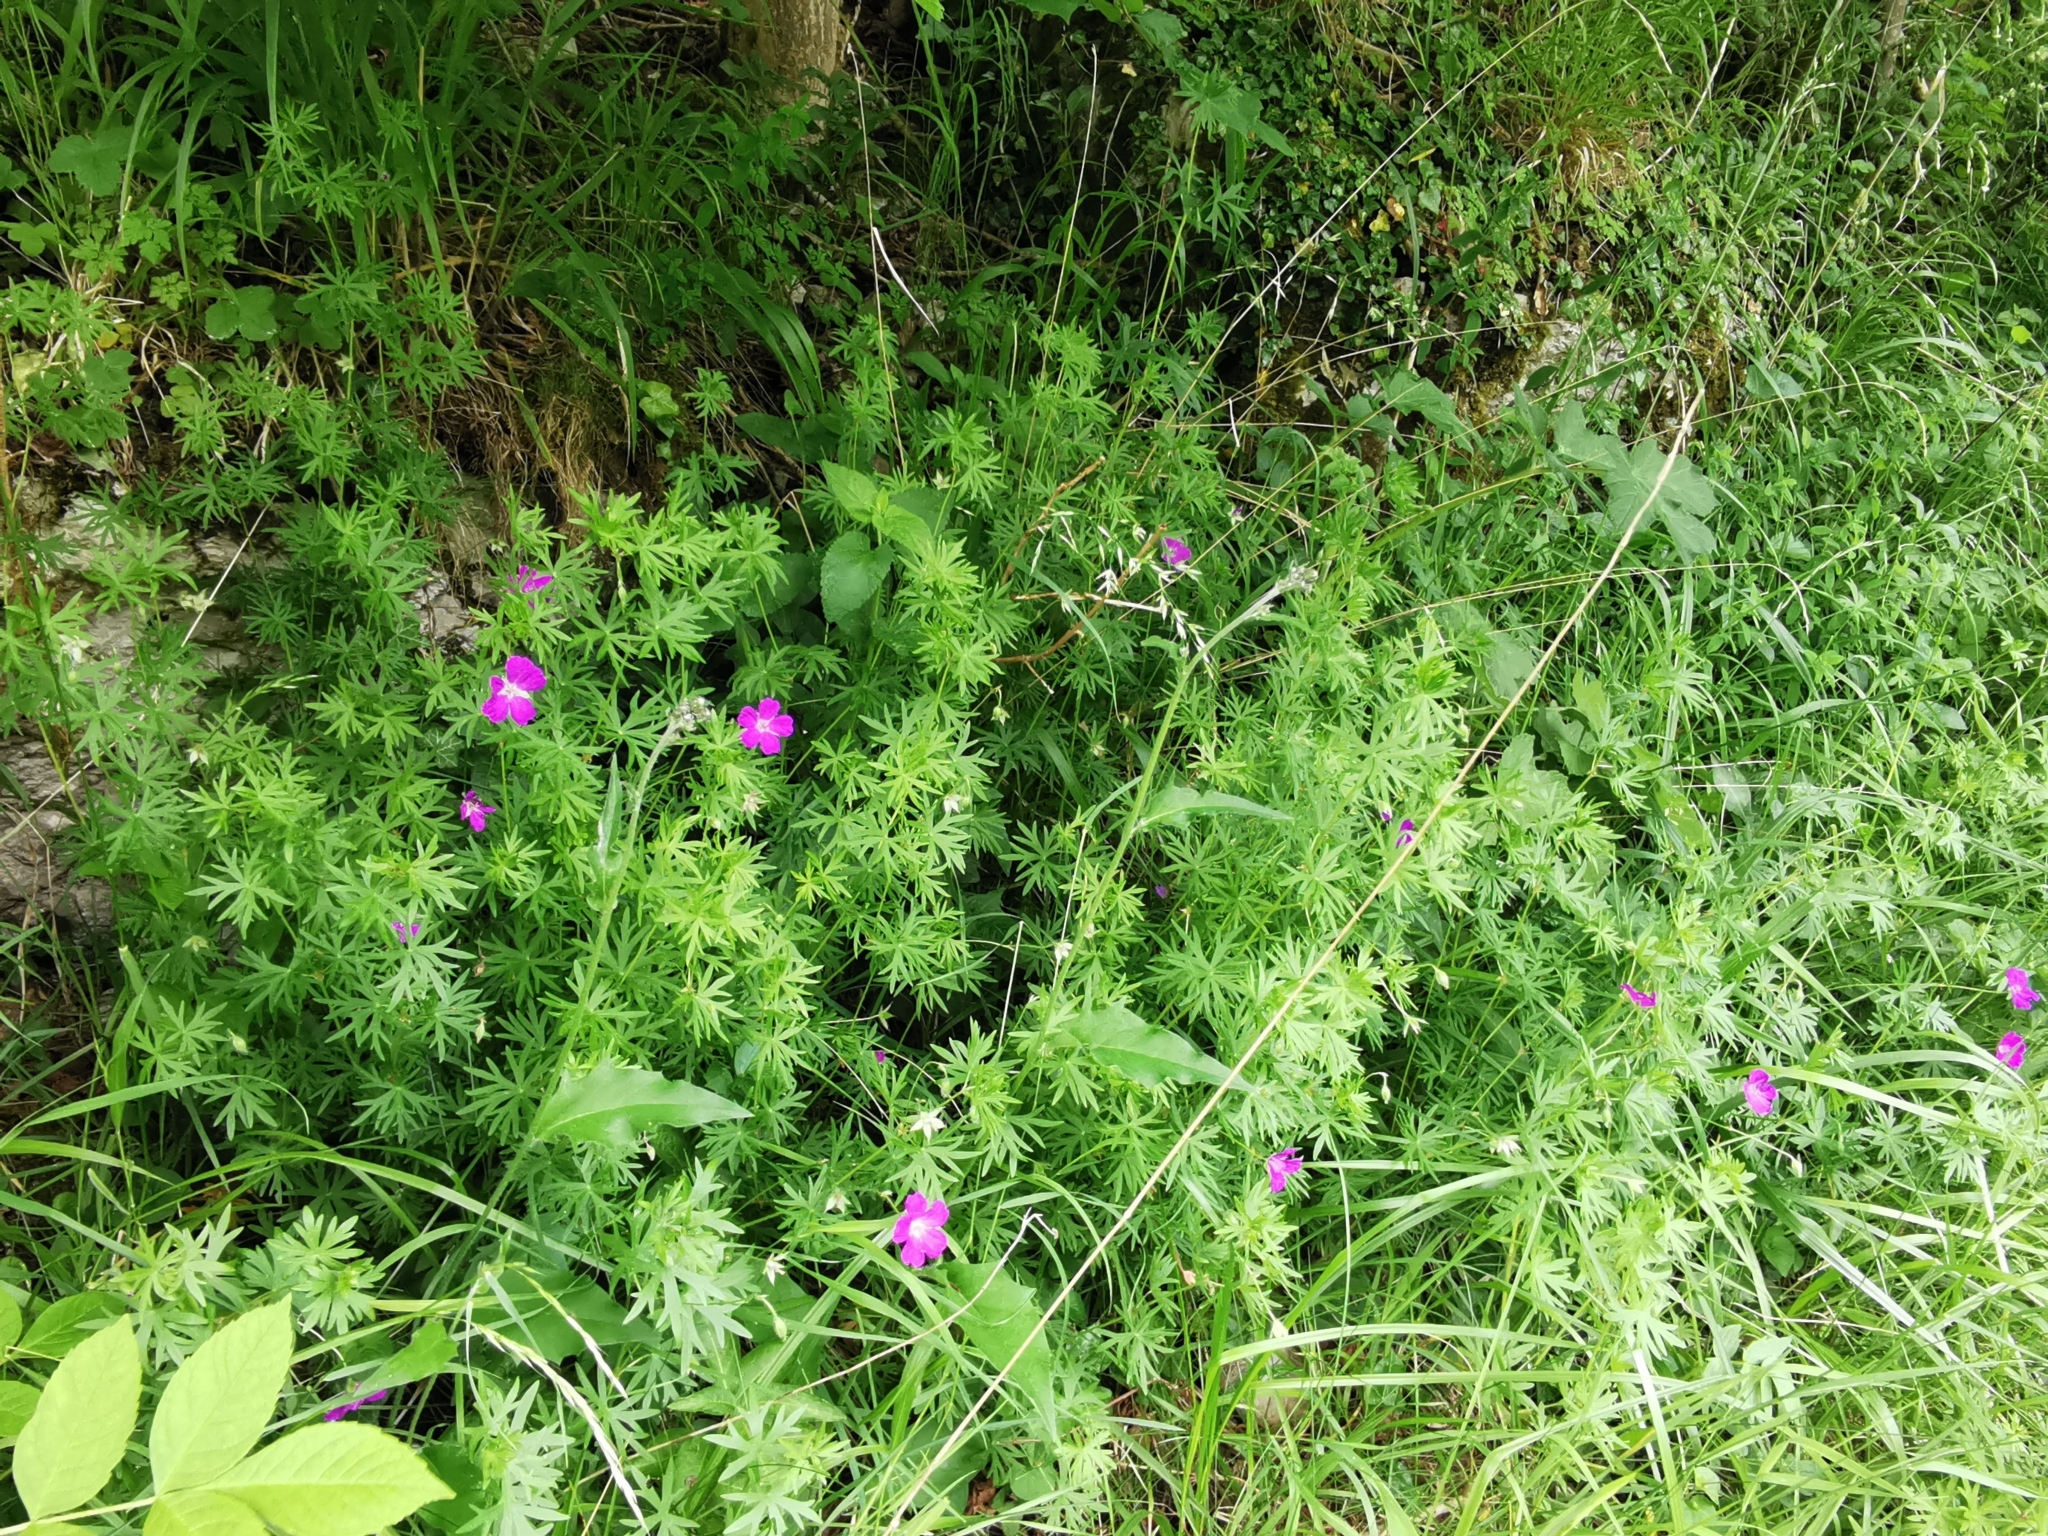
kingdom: Plantae
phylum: Tracheophyta
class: Magnoliopsida
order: Geraniales
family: Geraniaceae
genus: Geranium
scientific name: Geranium sanguineum
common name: Bloody crane's-bill
